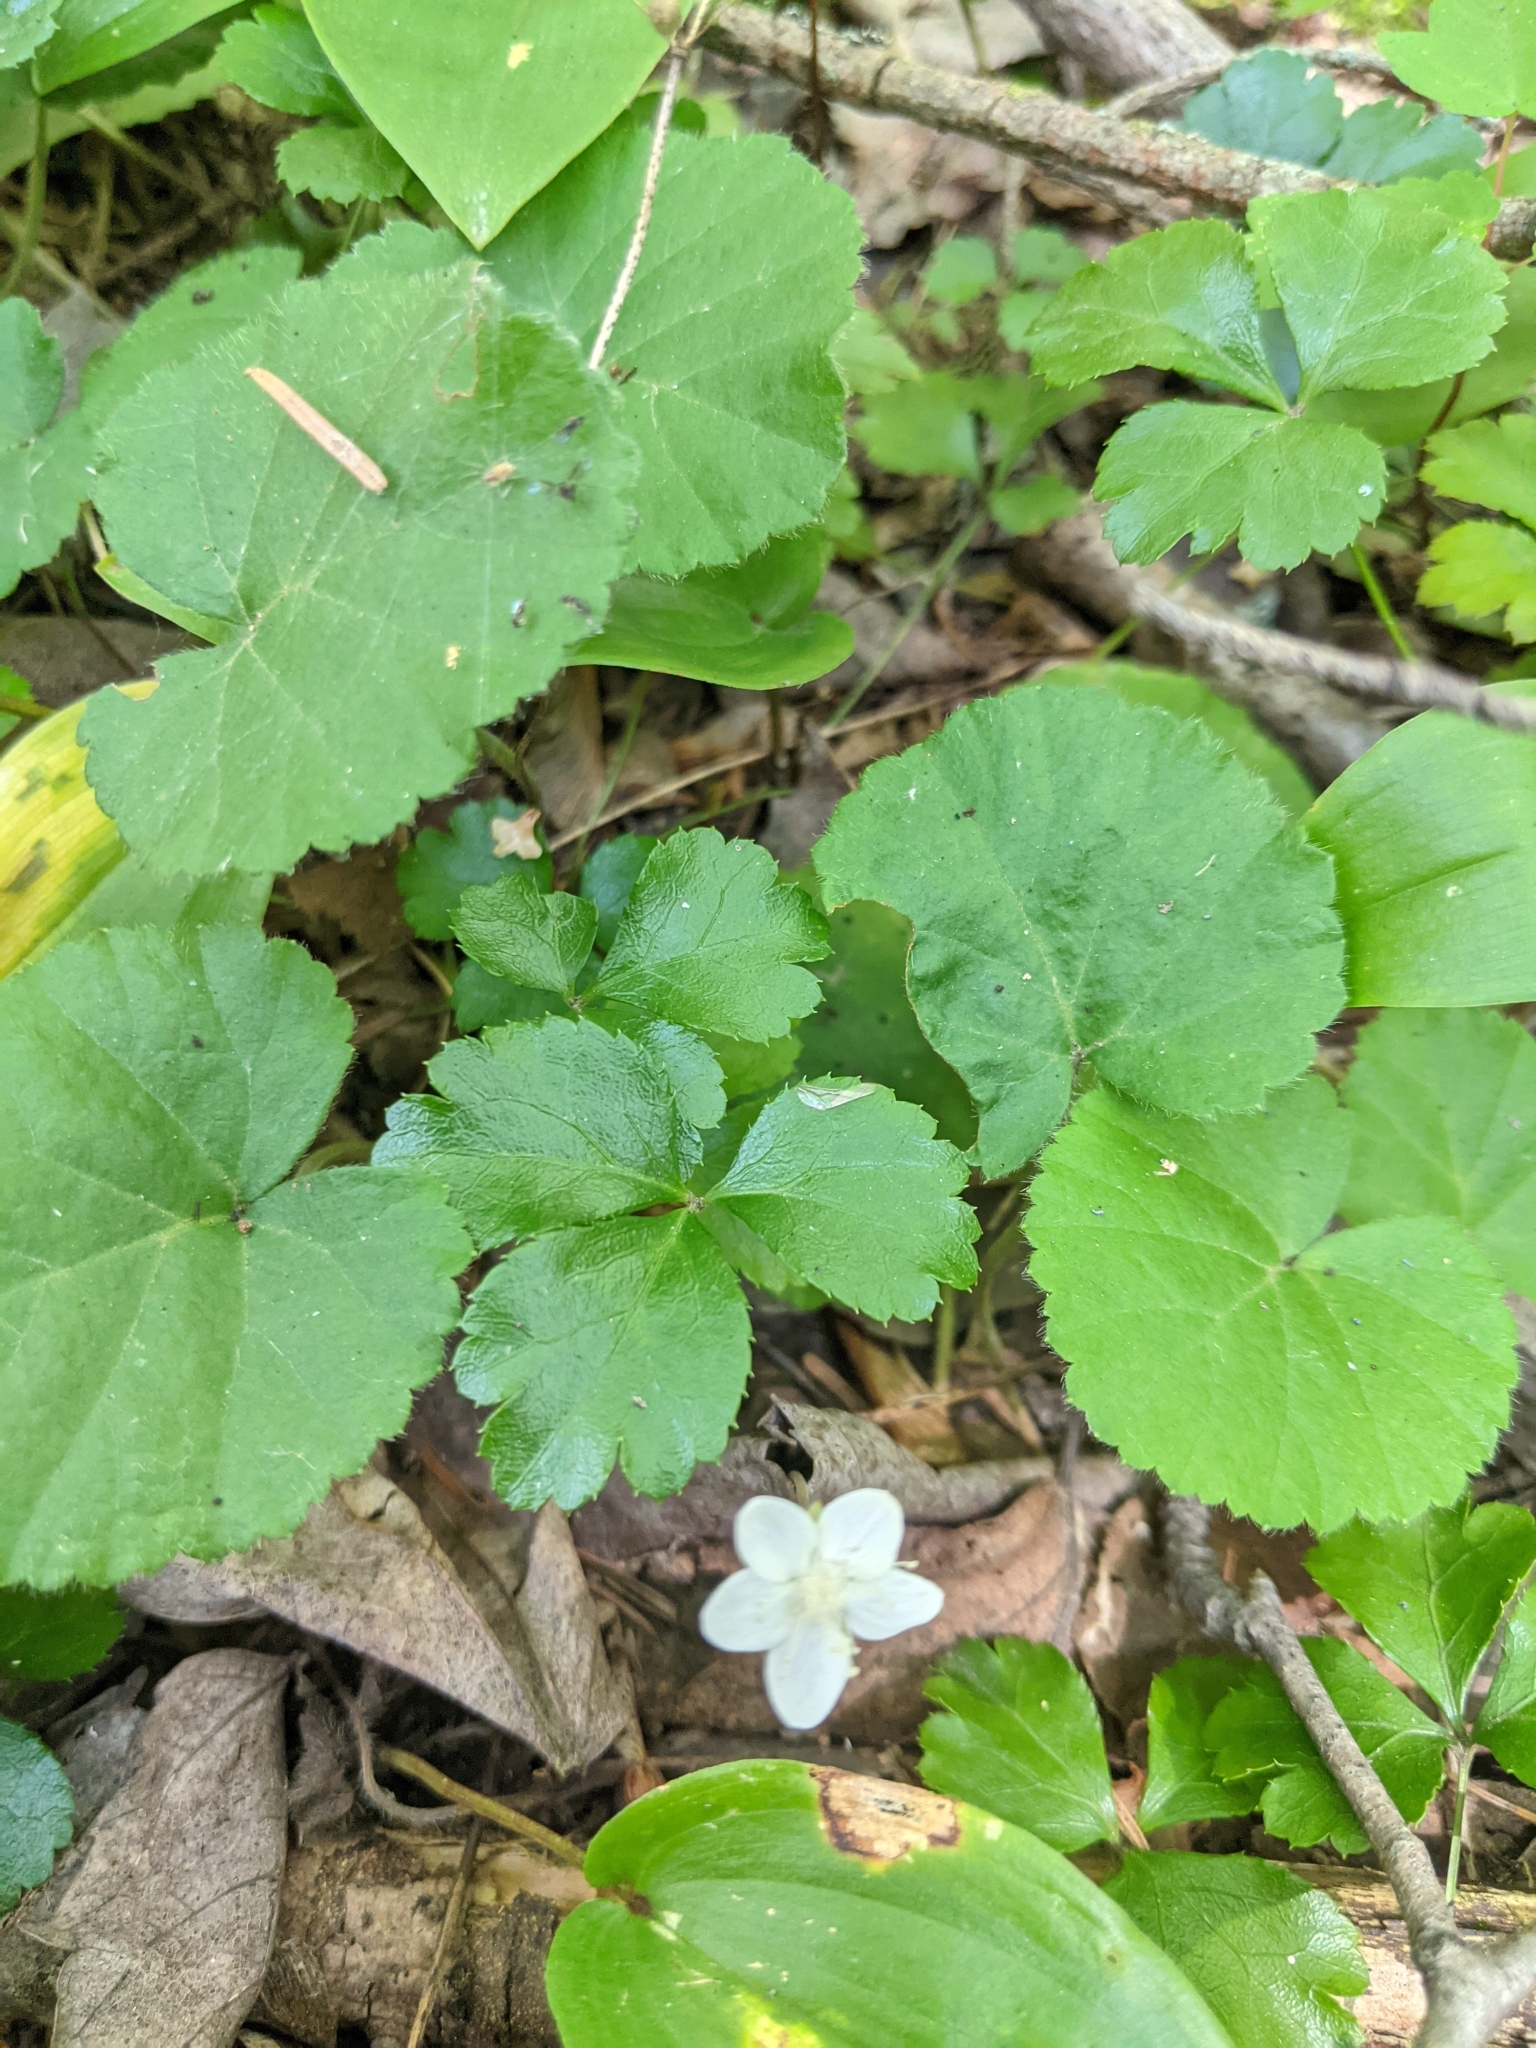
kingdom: Plantae
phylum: Tracheophyta
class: Magnoliopsida
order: Rosales
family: Rosaceae
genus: Dalibarda
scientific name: Dalibarda repens
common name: Dewdrop
